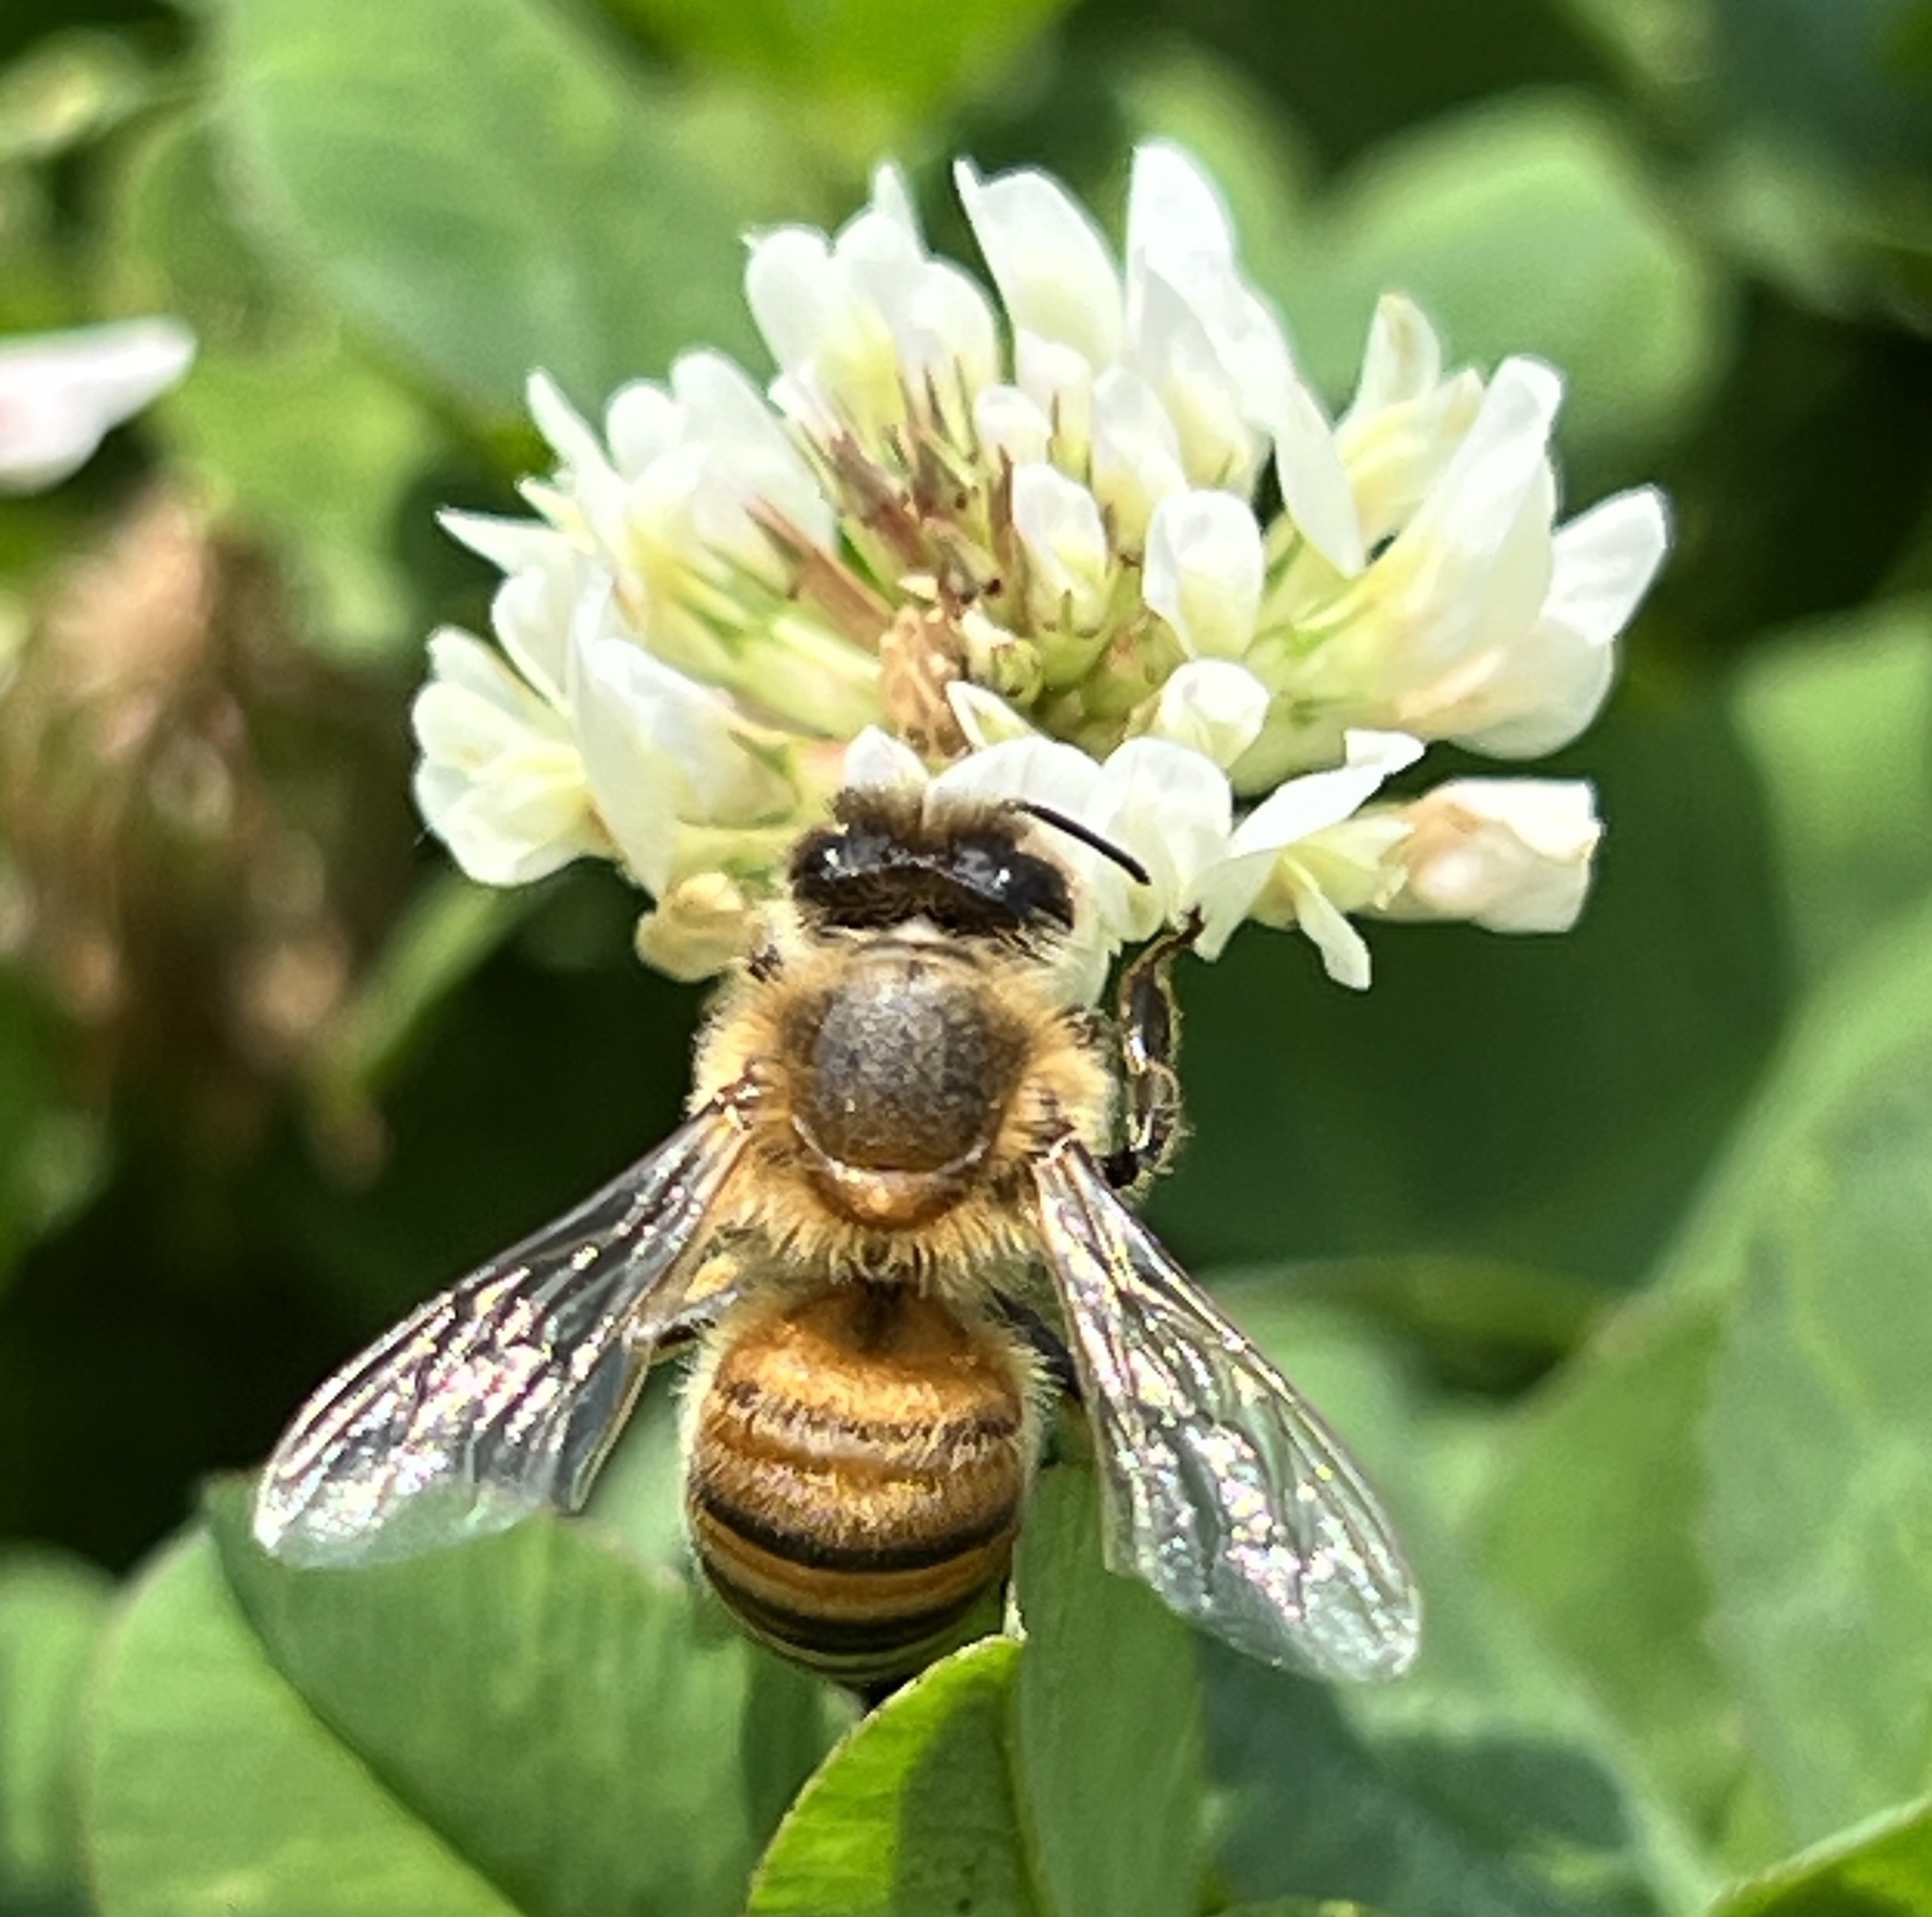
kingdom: Animalia
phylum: Arthropoda
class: Insecta
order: Hymenoptera
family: Apidae
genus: Apis
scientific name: Apis mellifera
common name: Honey bee
